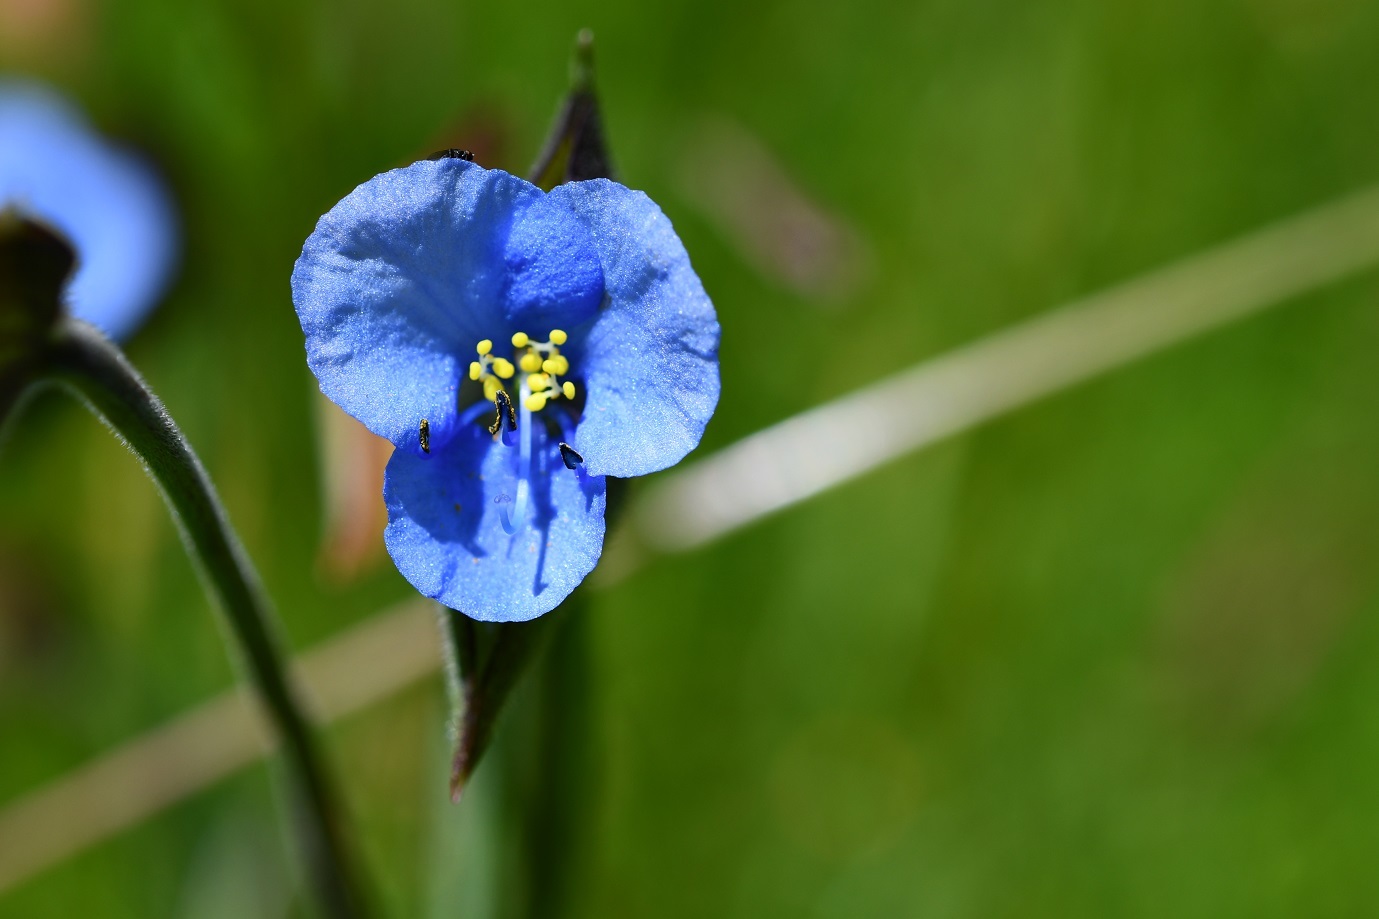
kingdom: Plantae
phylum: Tracheophyta
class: Liliopsida
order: Commelinales
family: Commelinaceae
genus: Commelina
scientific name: Commelina tuberosa
